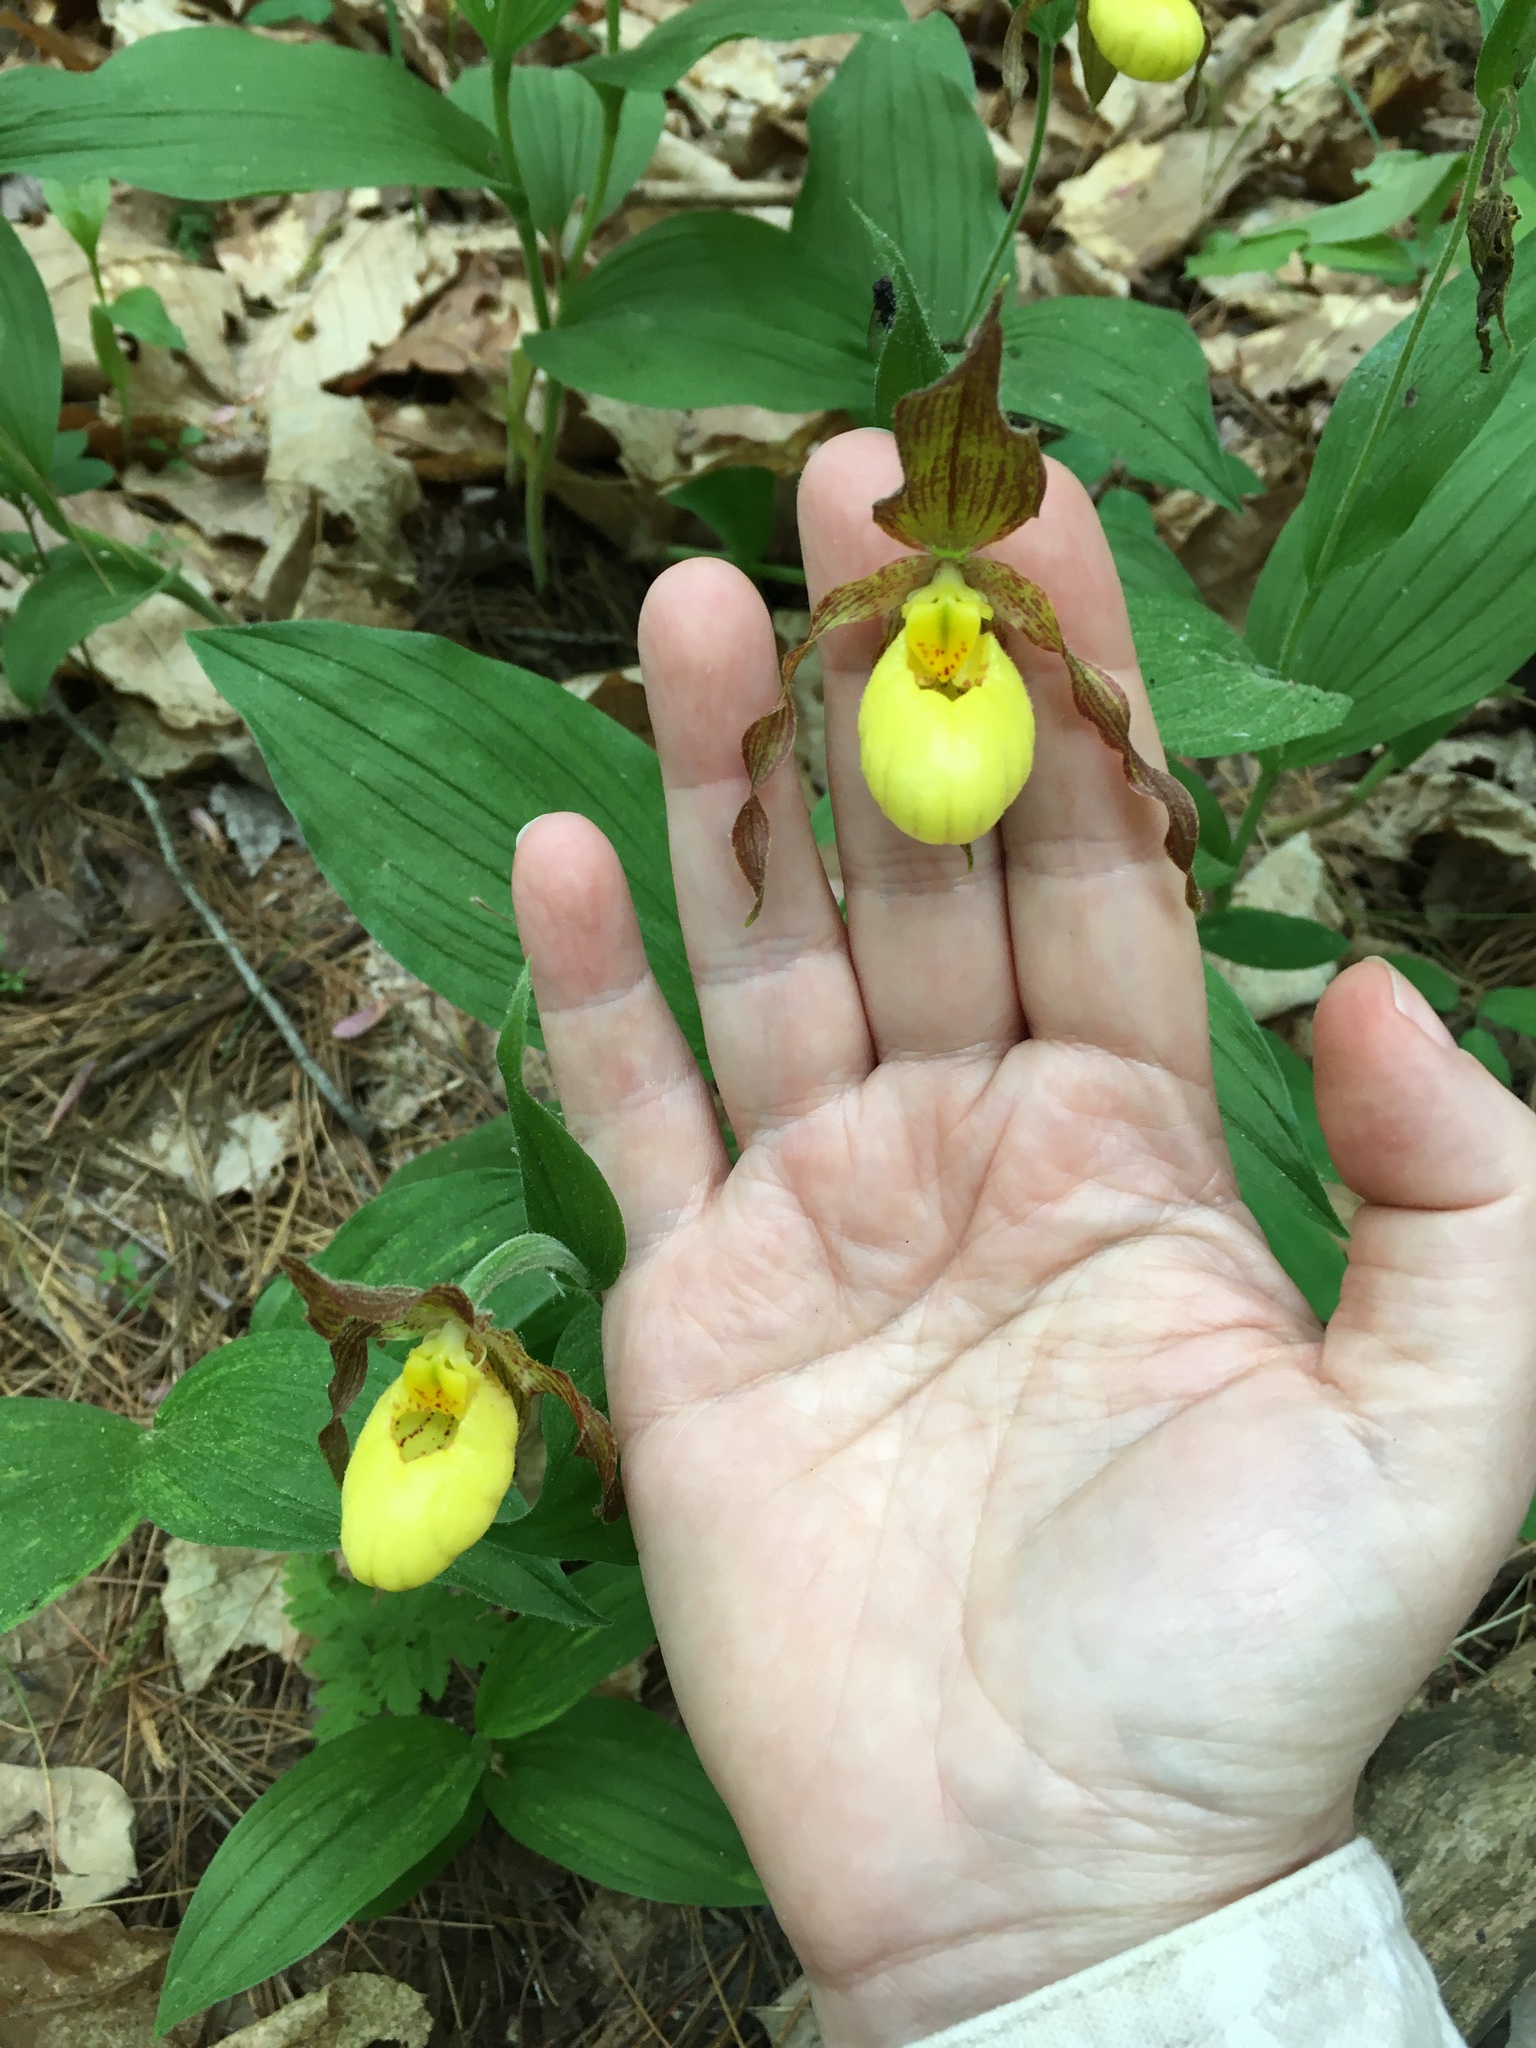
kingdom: Plantae
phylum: Tracheophyta
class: Liliopsida
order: Asparagales
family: Orchidaceae
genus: Cypripedium
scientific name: Cypripedium parviflorum
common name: American yellow lady's-slipper
